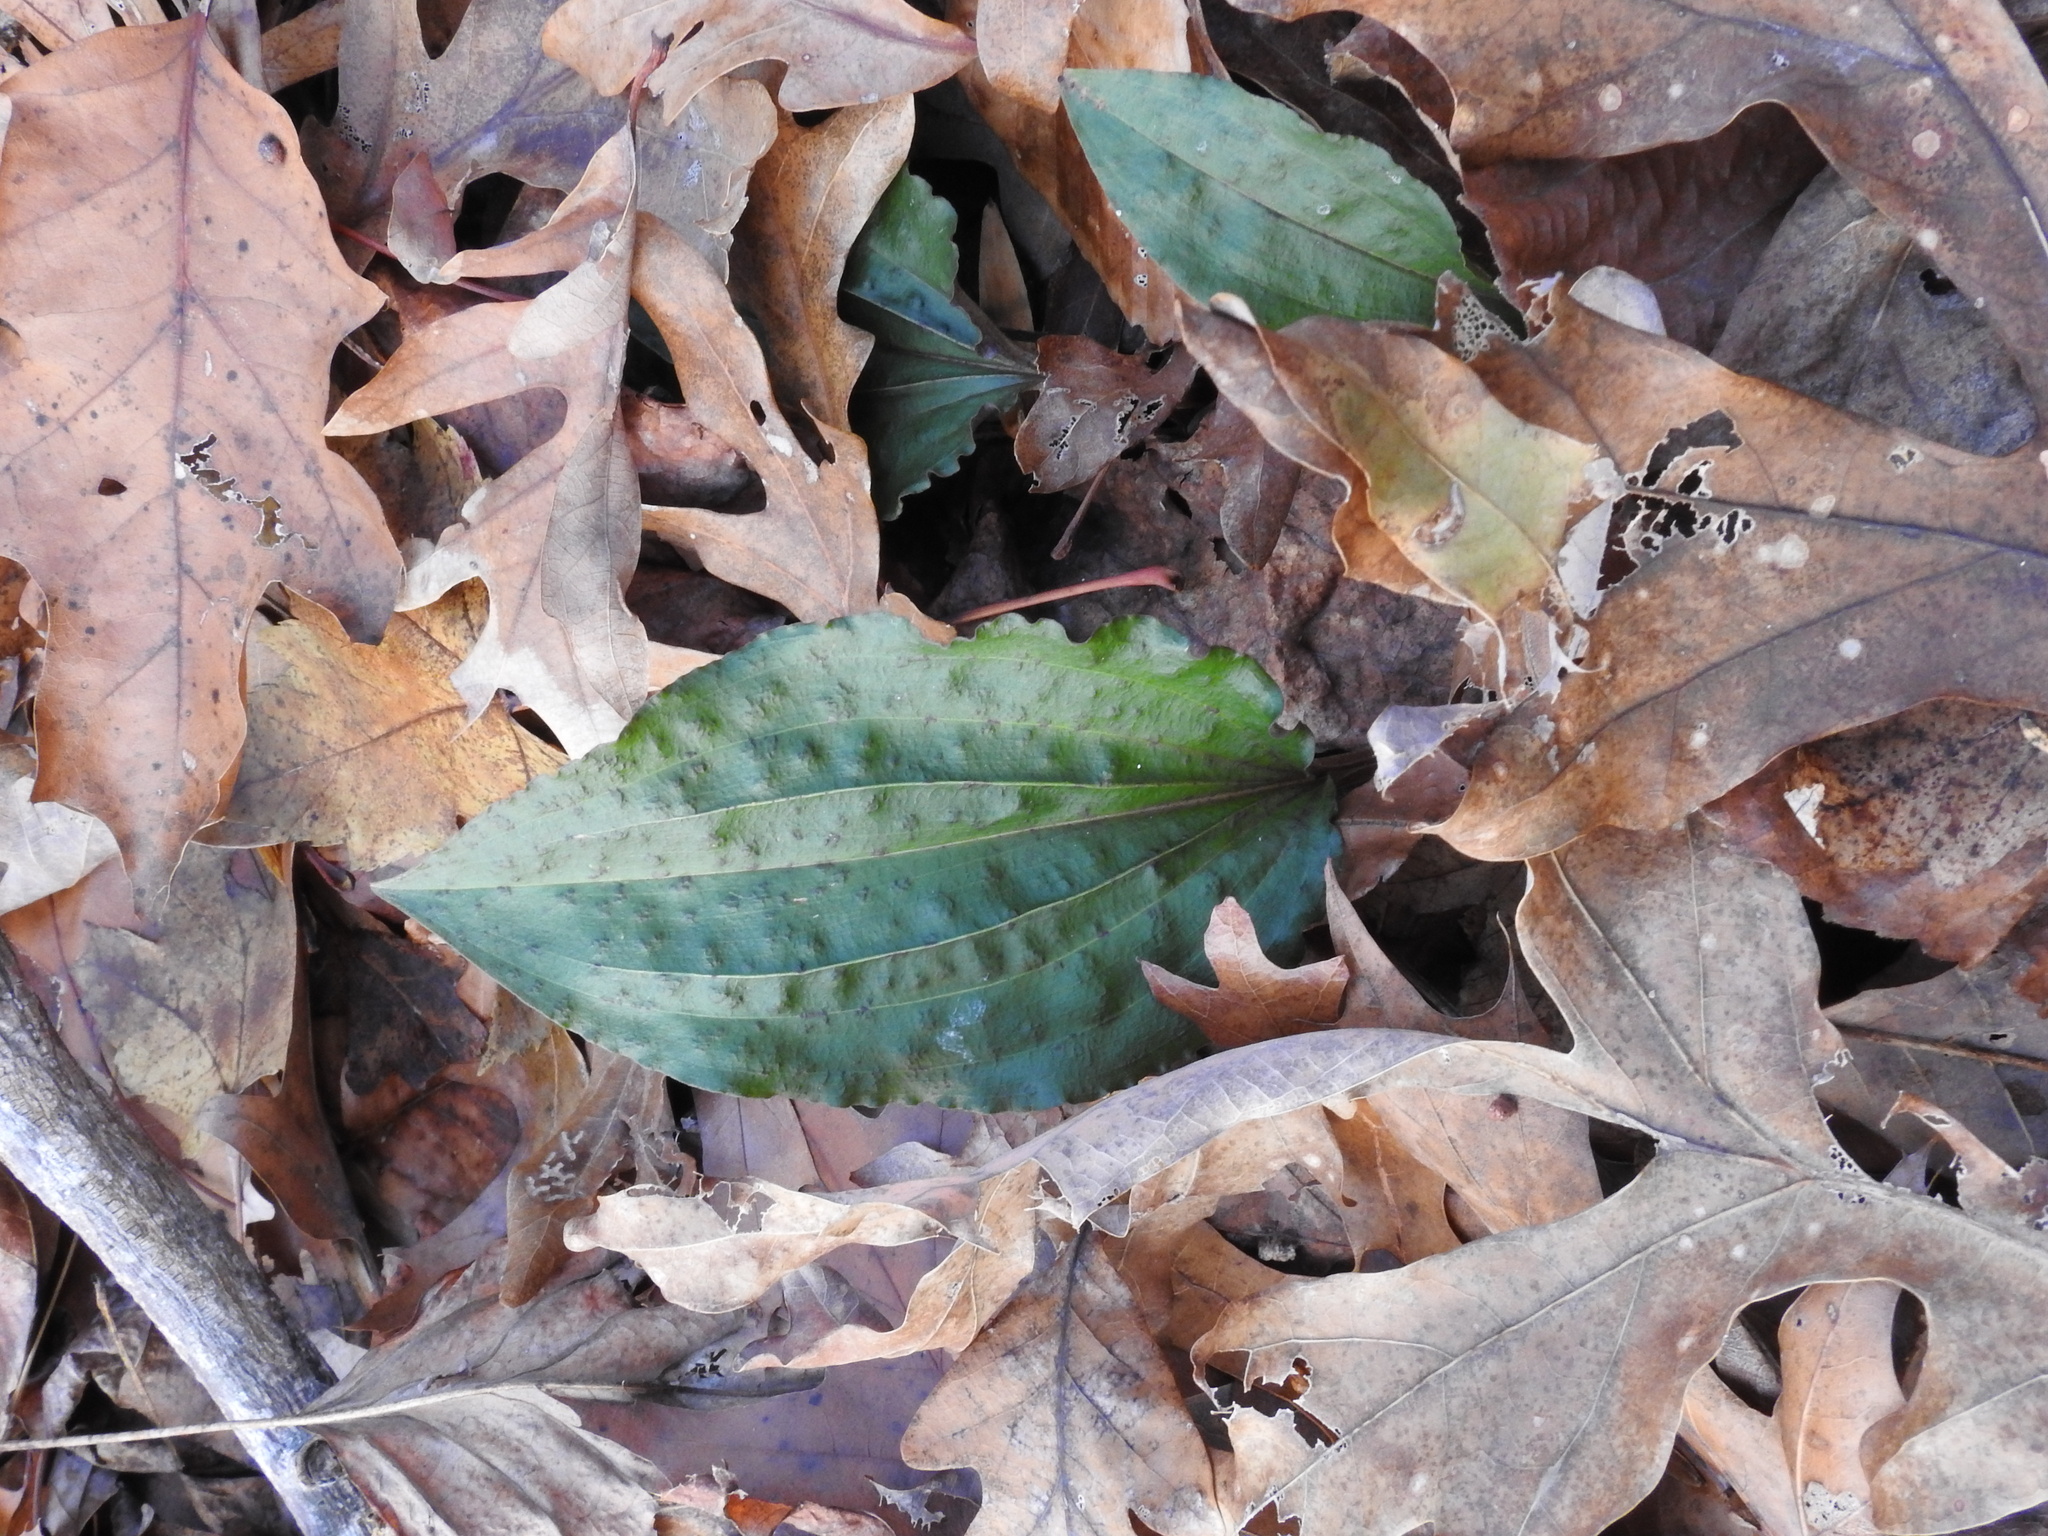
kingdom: Plantae
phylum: Tracheophyta
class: Liliopsida
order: Asparagales
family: Orchidaceae
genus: Tipularia
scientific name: Tipularia discolor
